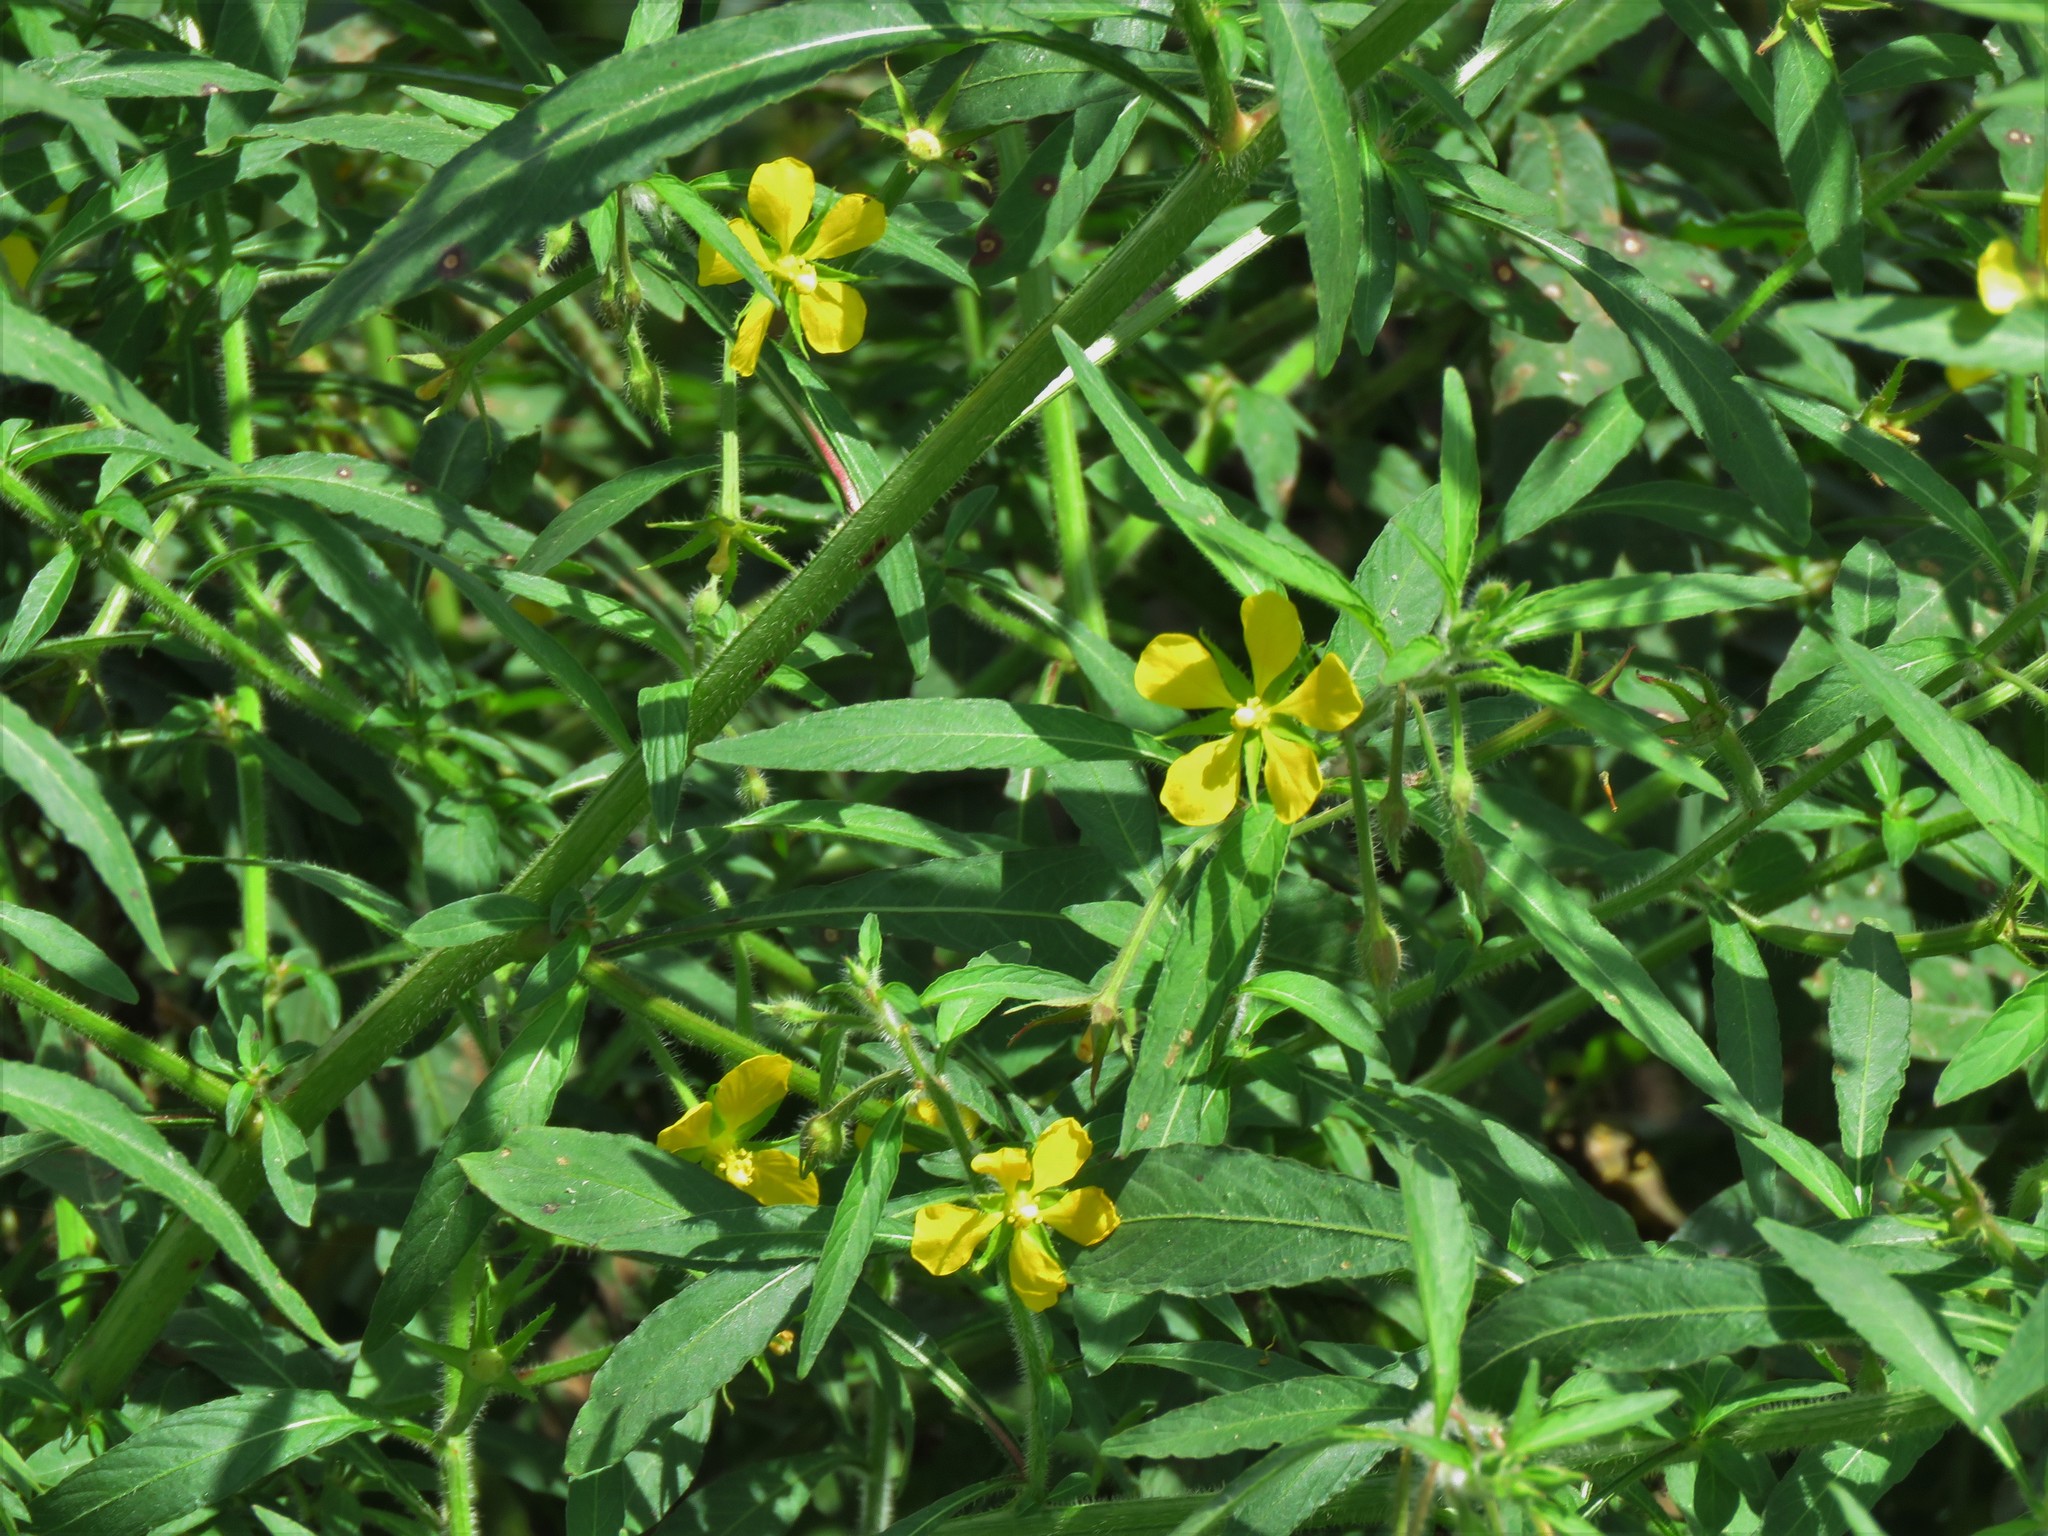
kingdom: Plantae
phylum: Tracheophyta
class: Magnoliopsida
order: Myrtales
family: Onagraceae
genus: Ludwigia
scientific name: Ludwigia leptocarpa
